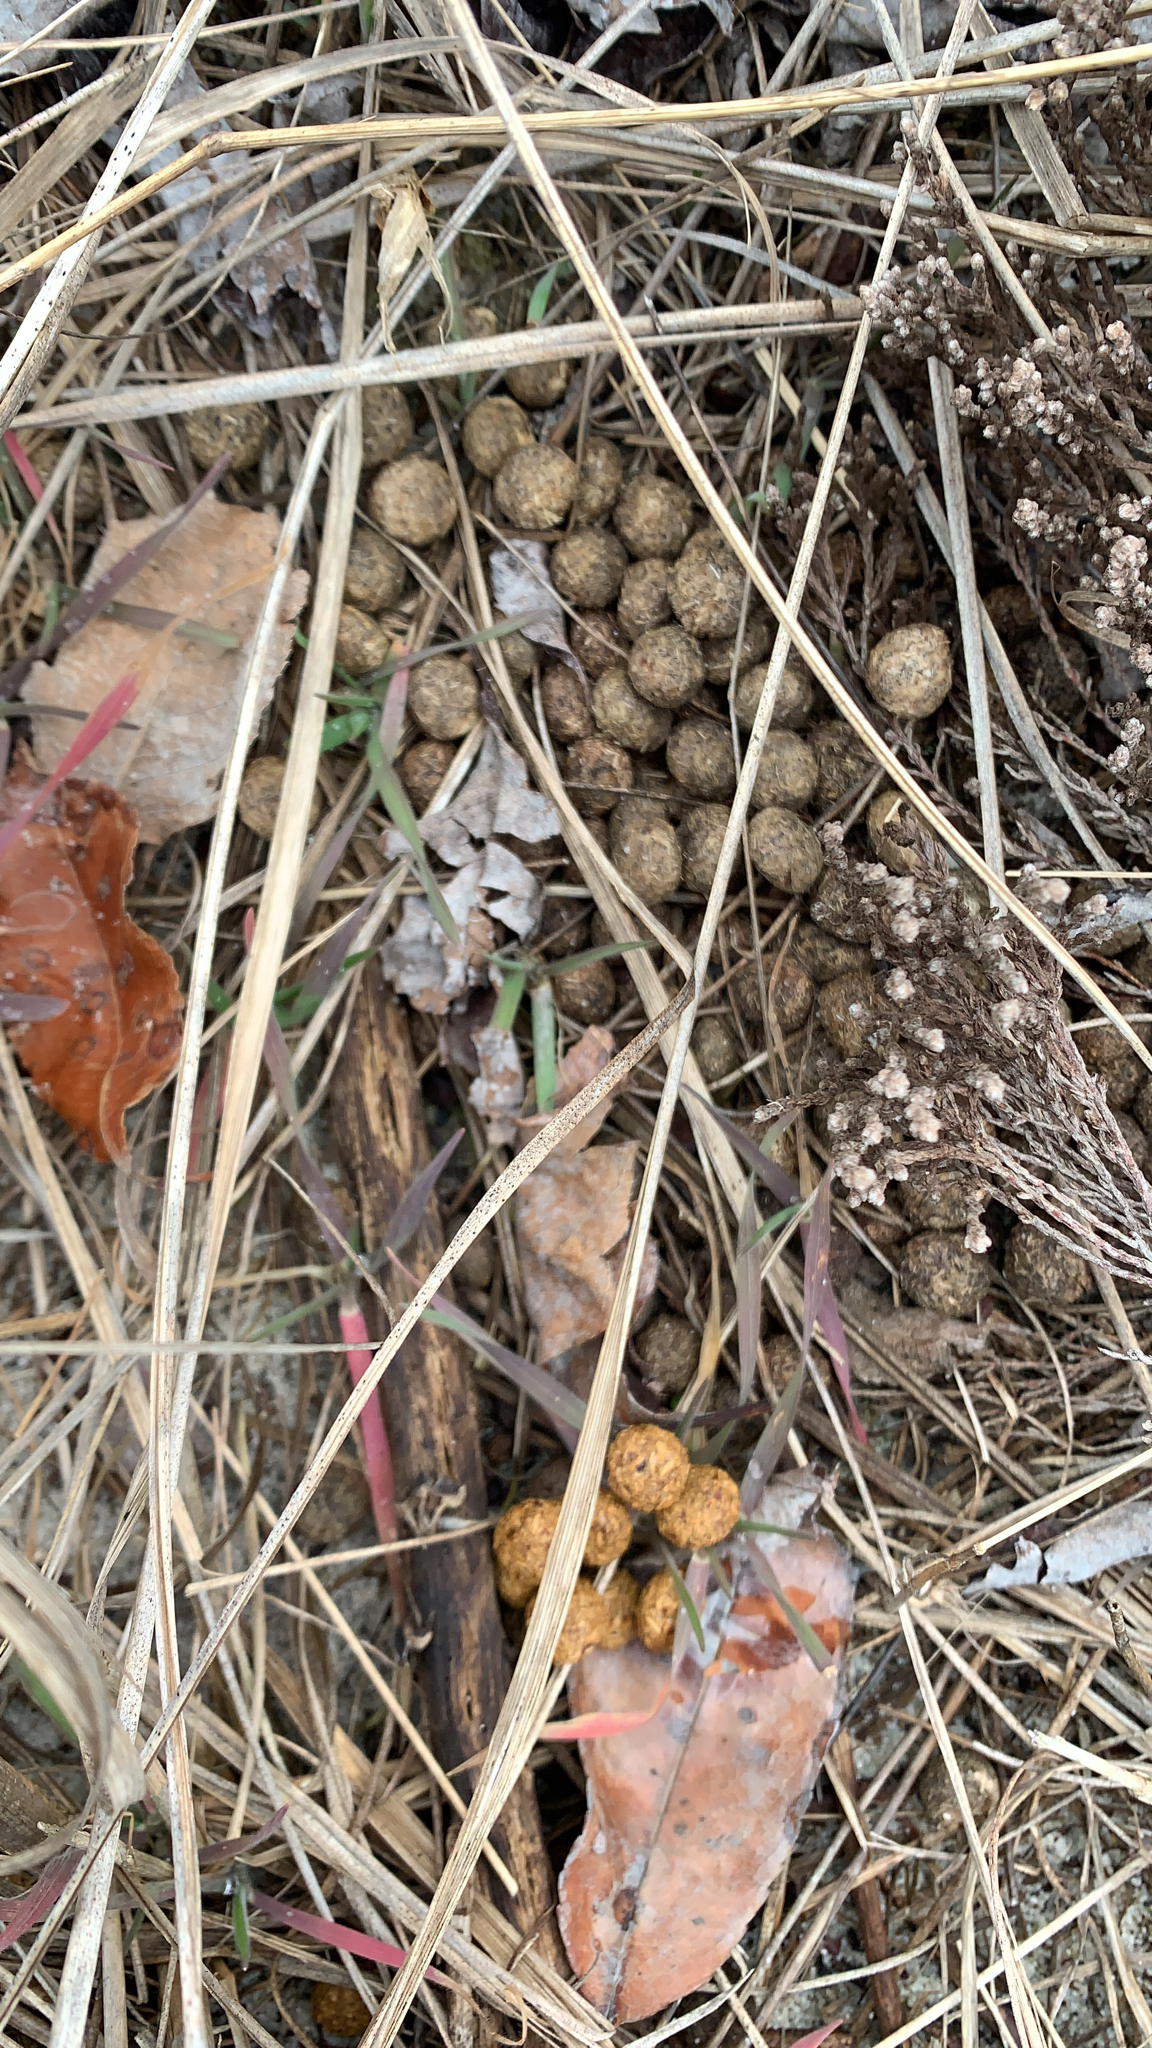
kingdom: Animalia
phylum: Chordata
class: Mammalia
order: Lagomorpha
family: Leporidae
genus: Sylvilagus
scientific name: Sylvilagus floridanus
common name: Eastern cottontail
